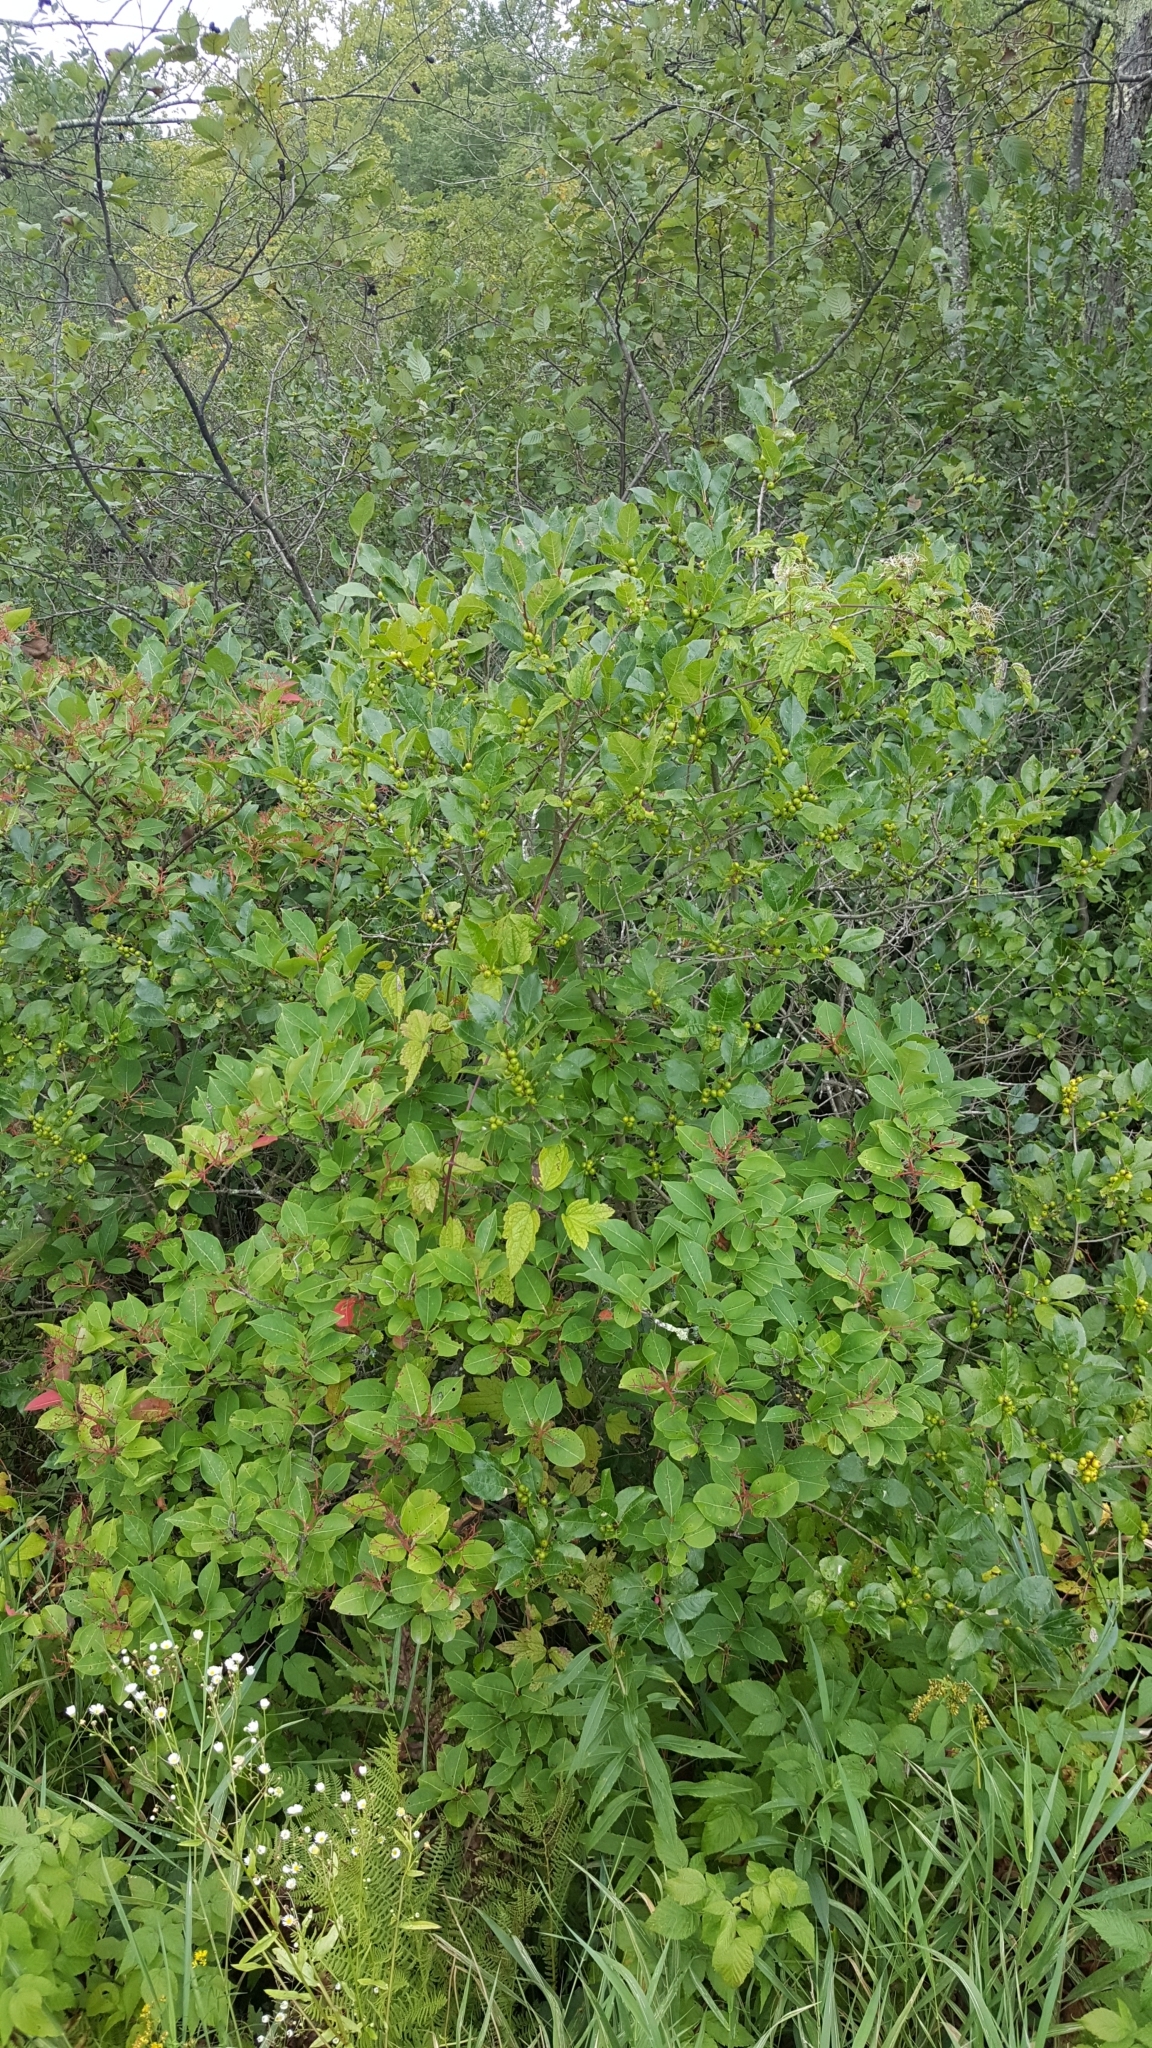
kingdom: Plantae
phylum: Tracheophyta
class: Magnoliopsida
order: Aquifoliales
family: Aquifoliaceae
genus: Ilex
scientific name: Ilex verticillata
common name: Virginia winterberry
